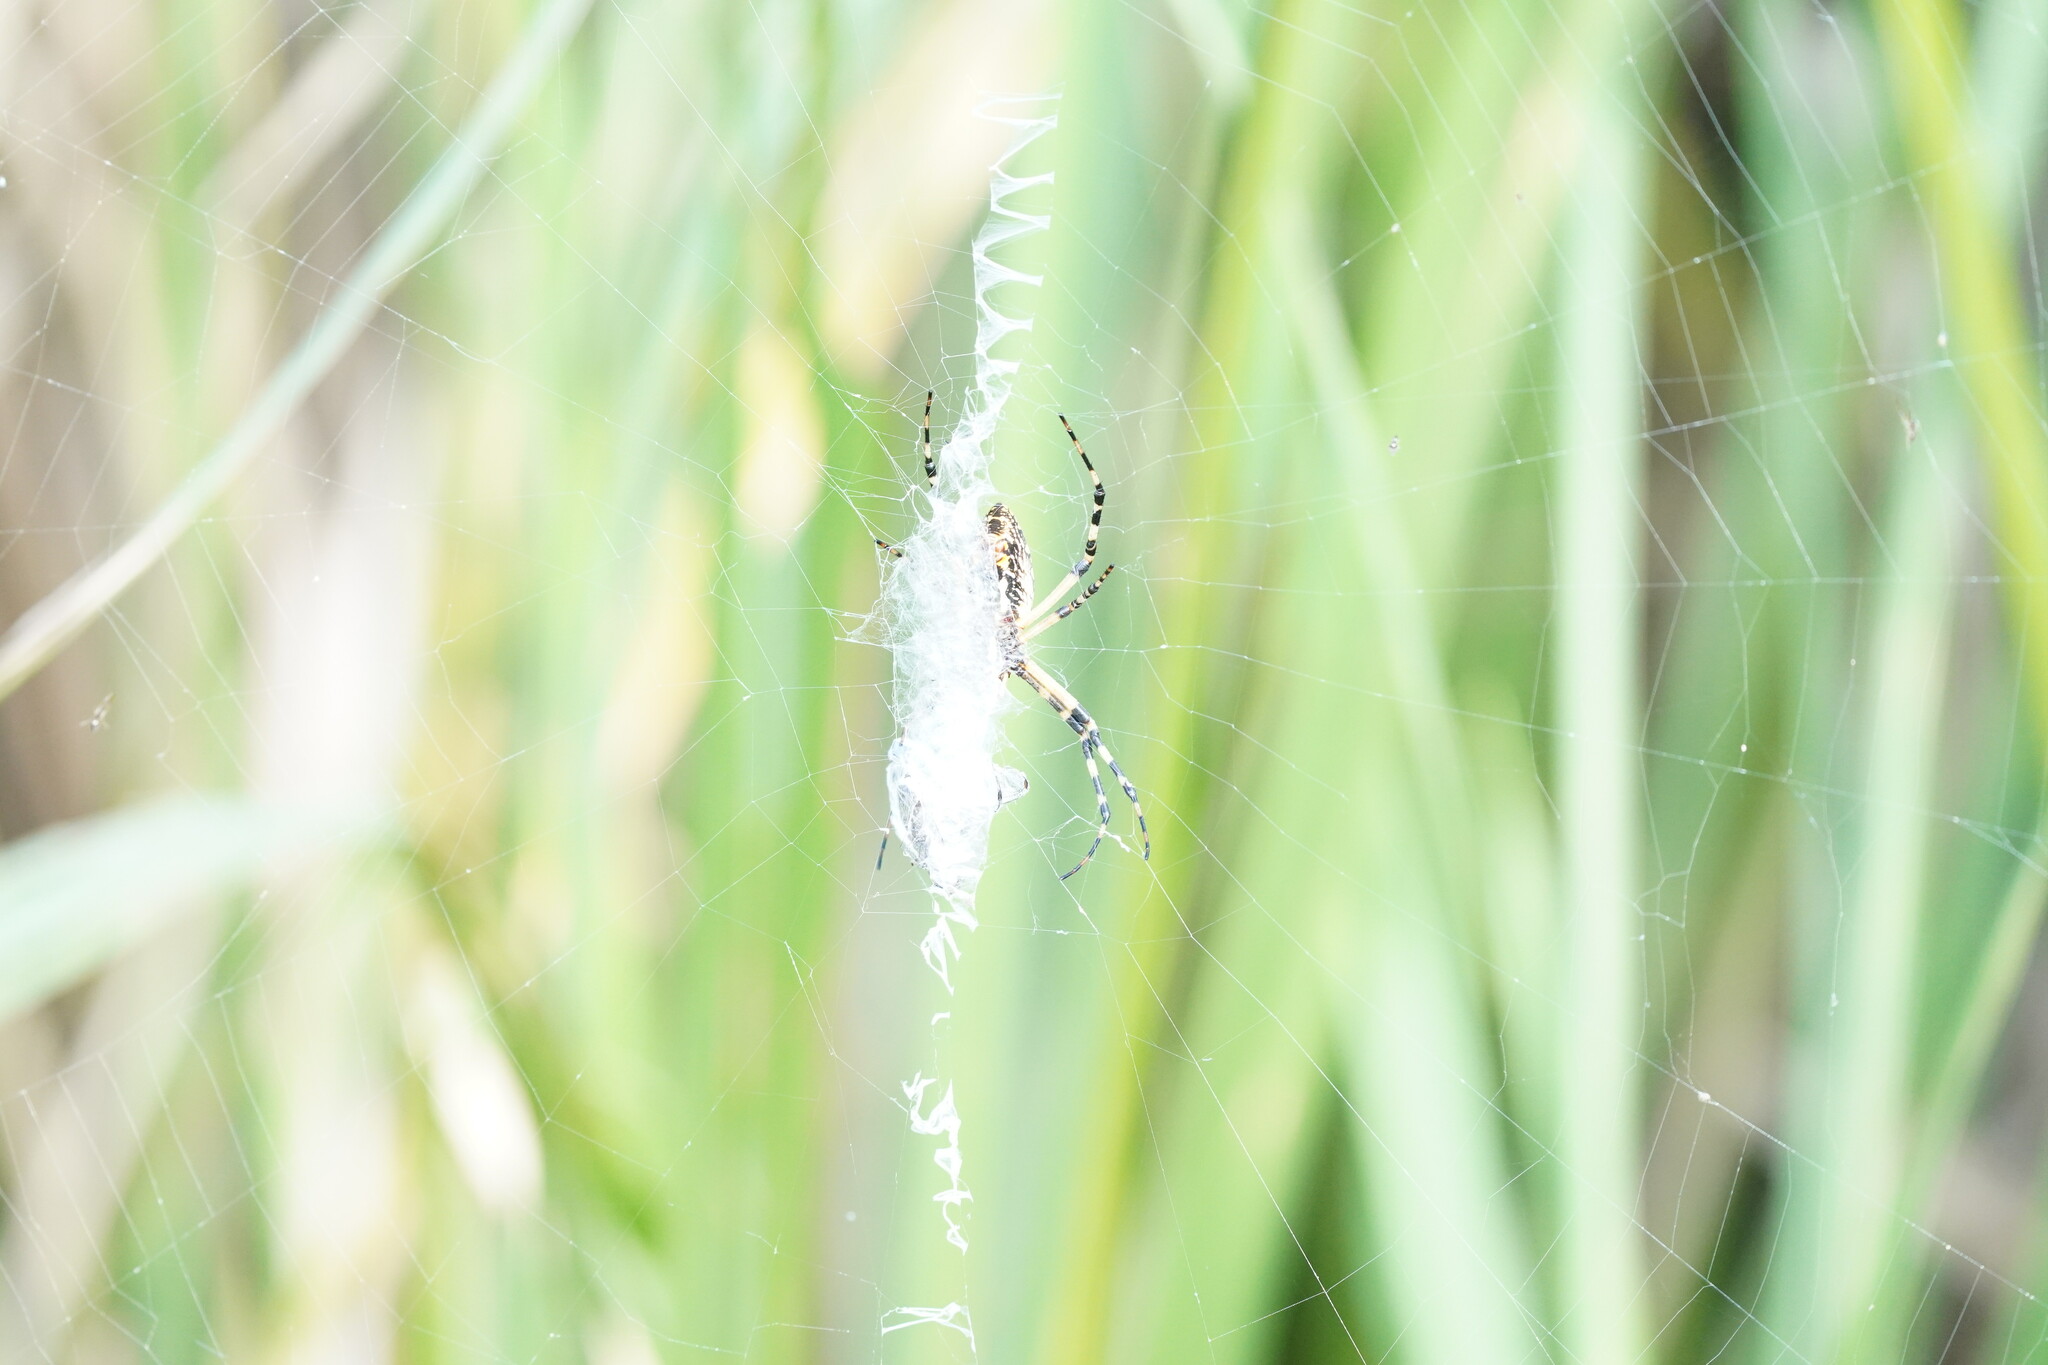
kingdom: Animalia
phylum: Arthropoda
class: Arachnida
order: Araneae
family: Araneidae
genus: Argiope
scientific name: Argiope aurantia
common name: Orb weavers
